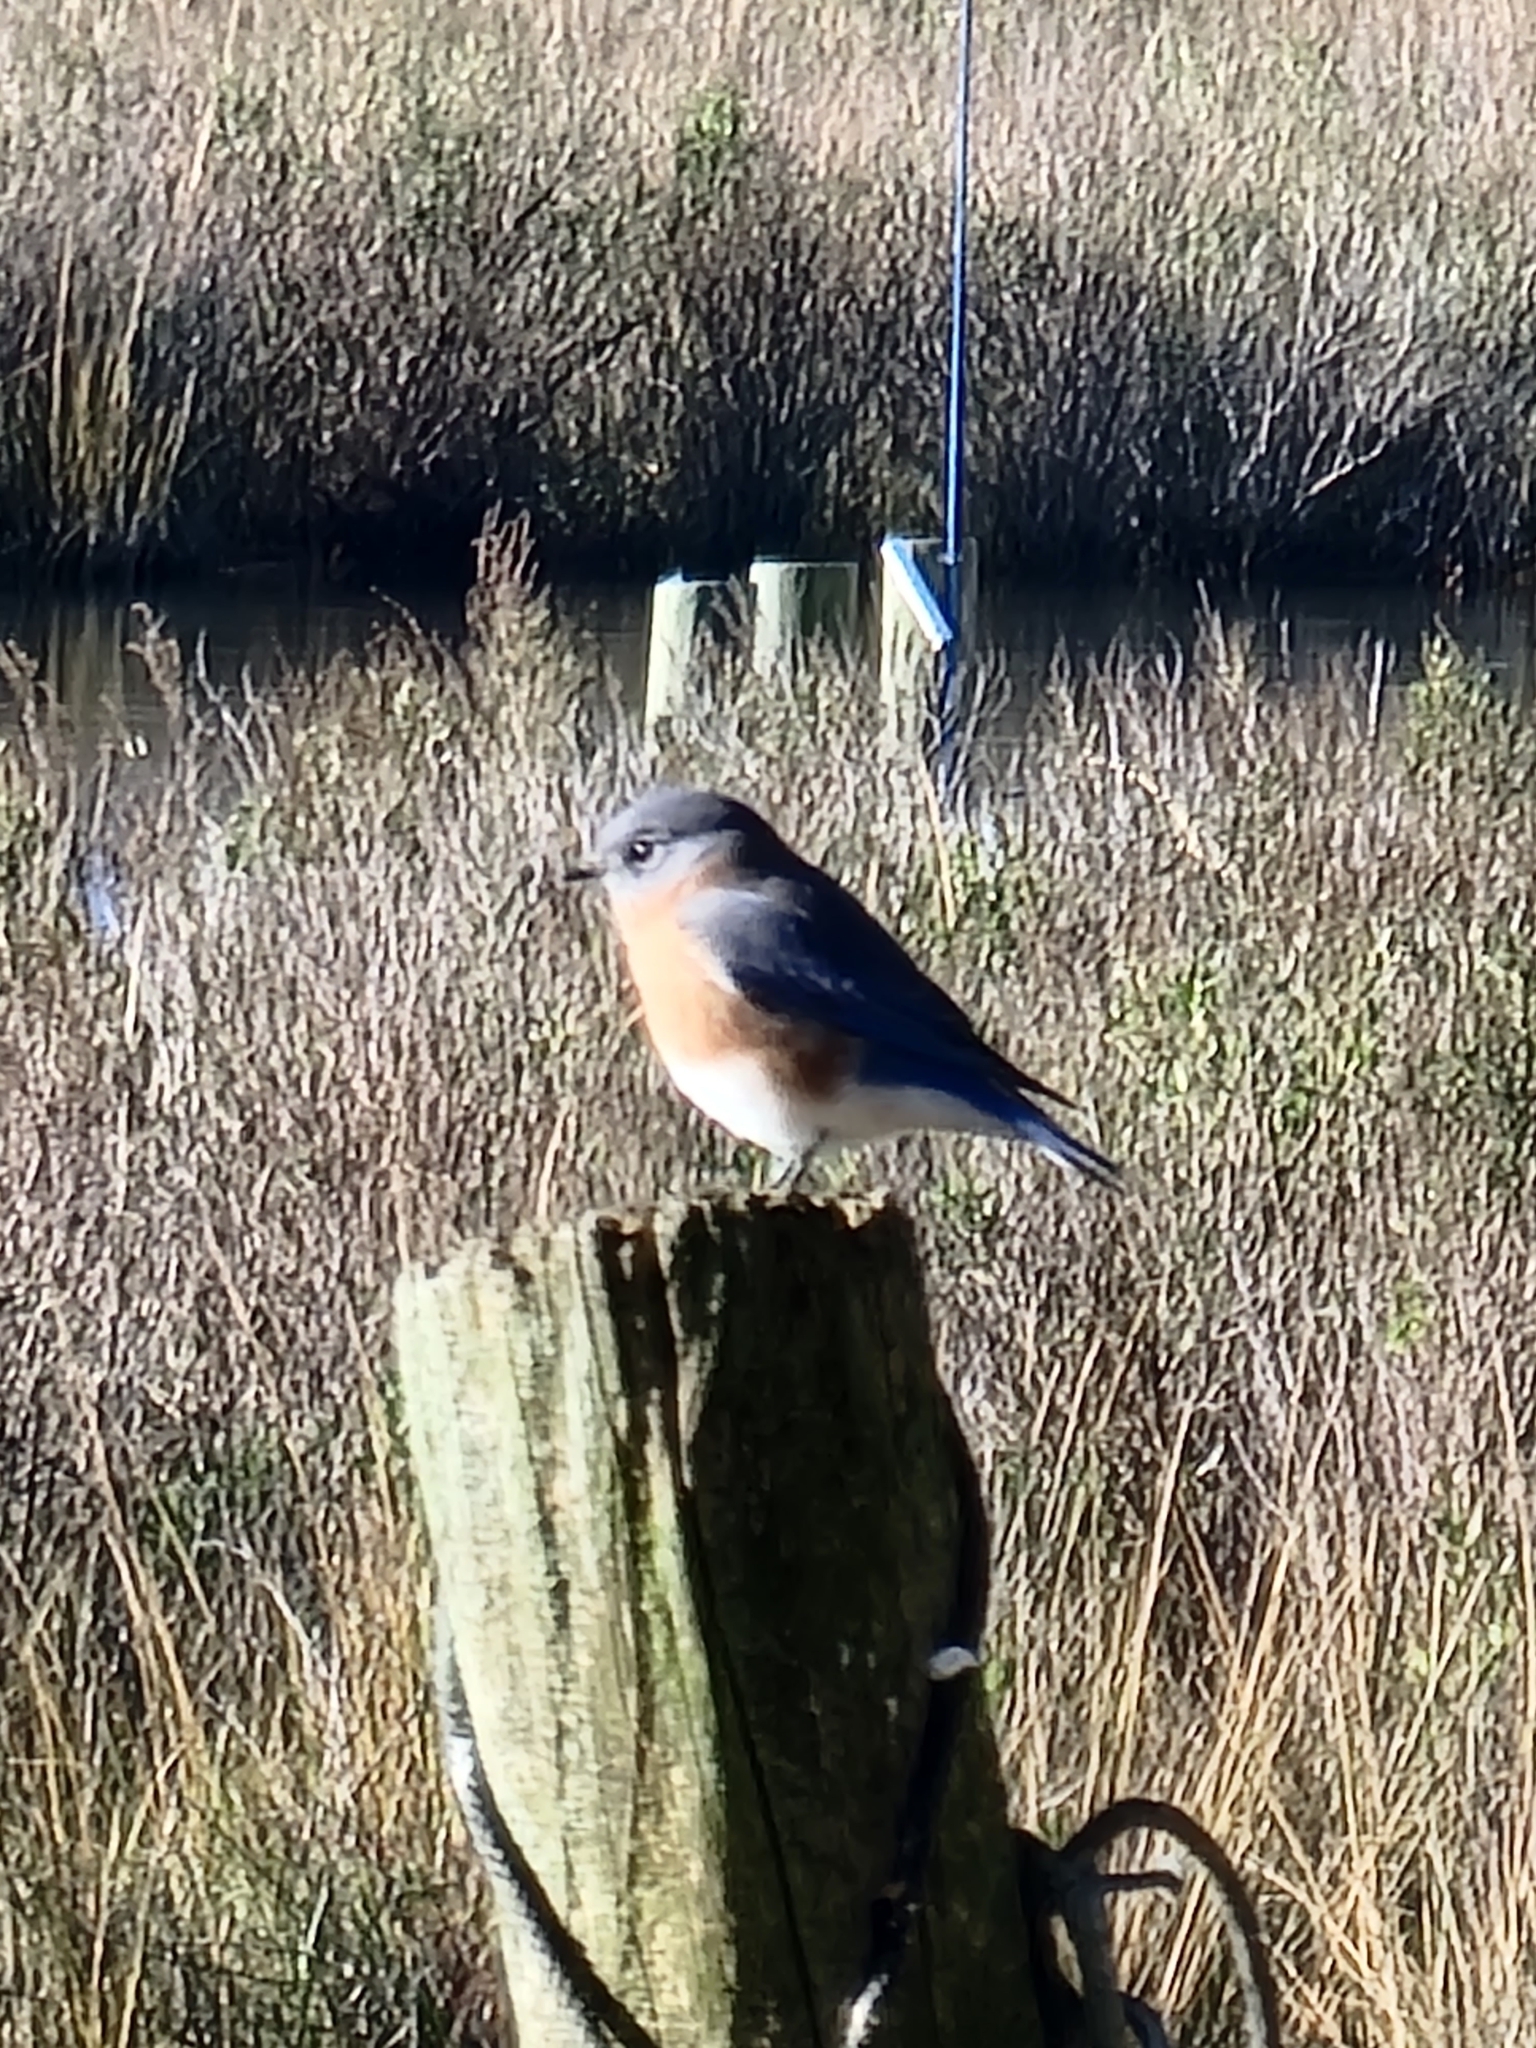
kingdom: Animalia
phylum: Chordata
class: Aves
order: Passeriformes
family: Turdidae
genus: Sialia
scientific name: Sialia sialis
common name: Eastern bluebird
